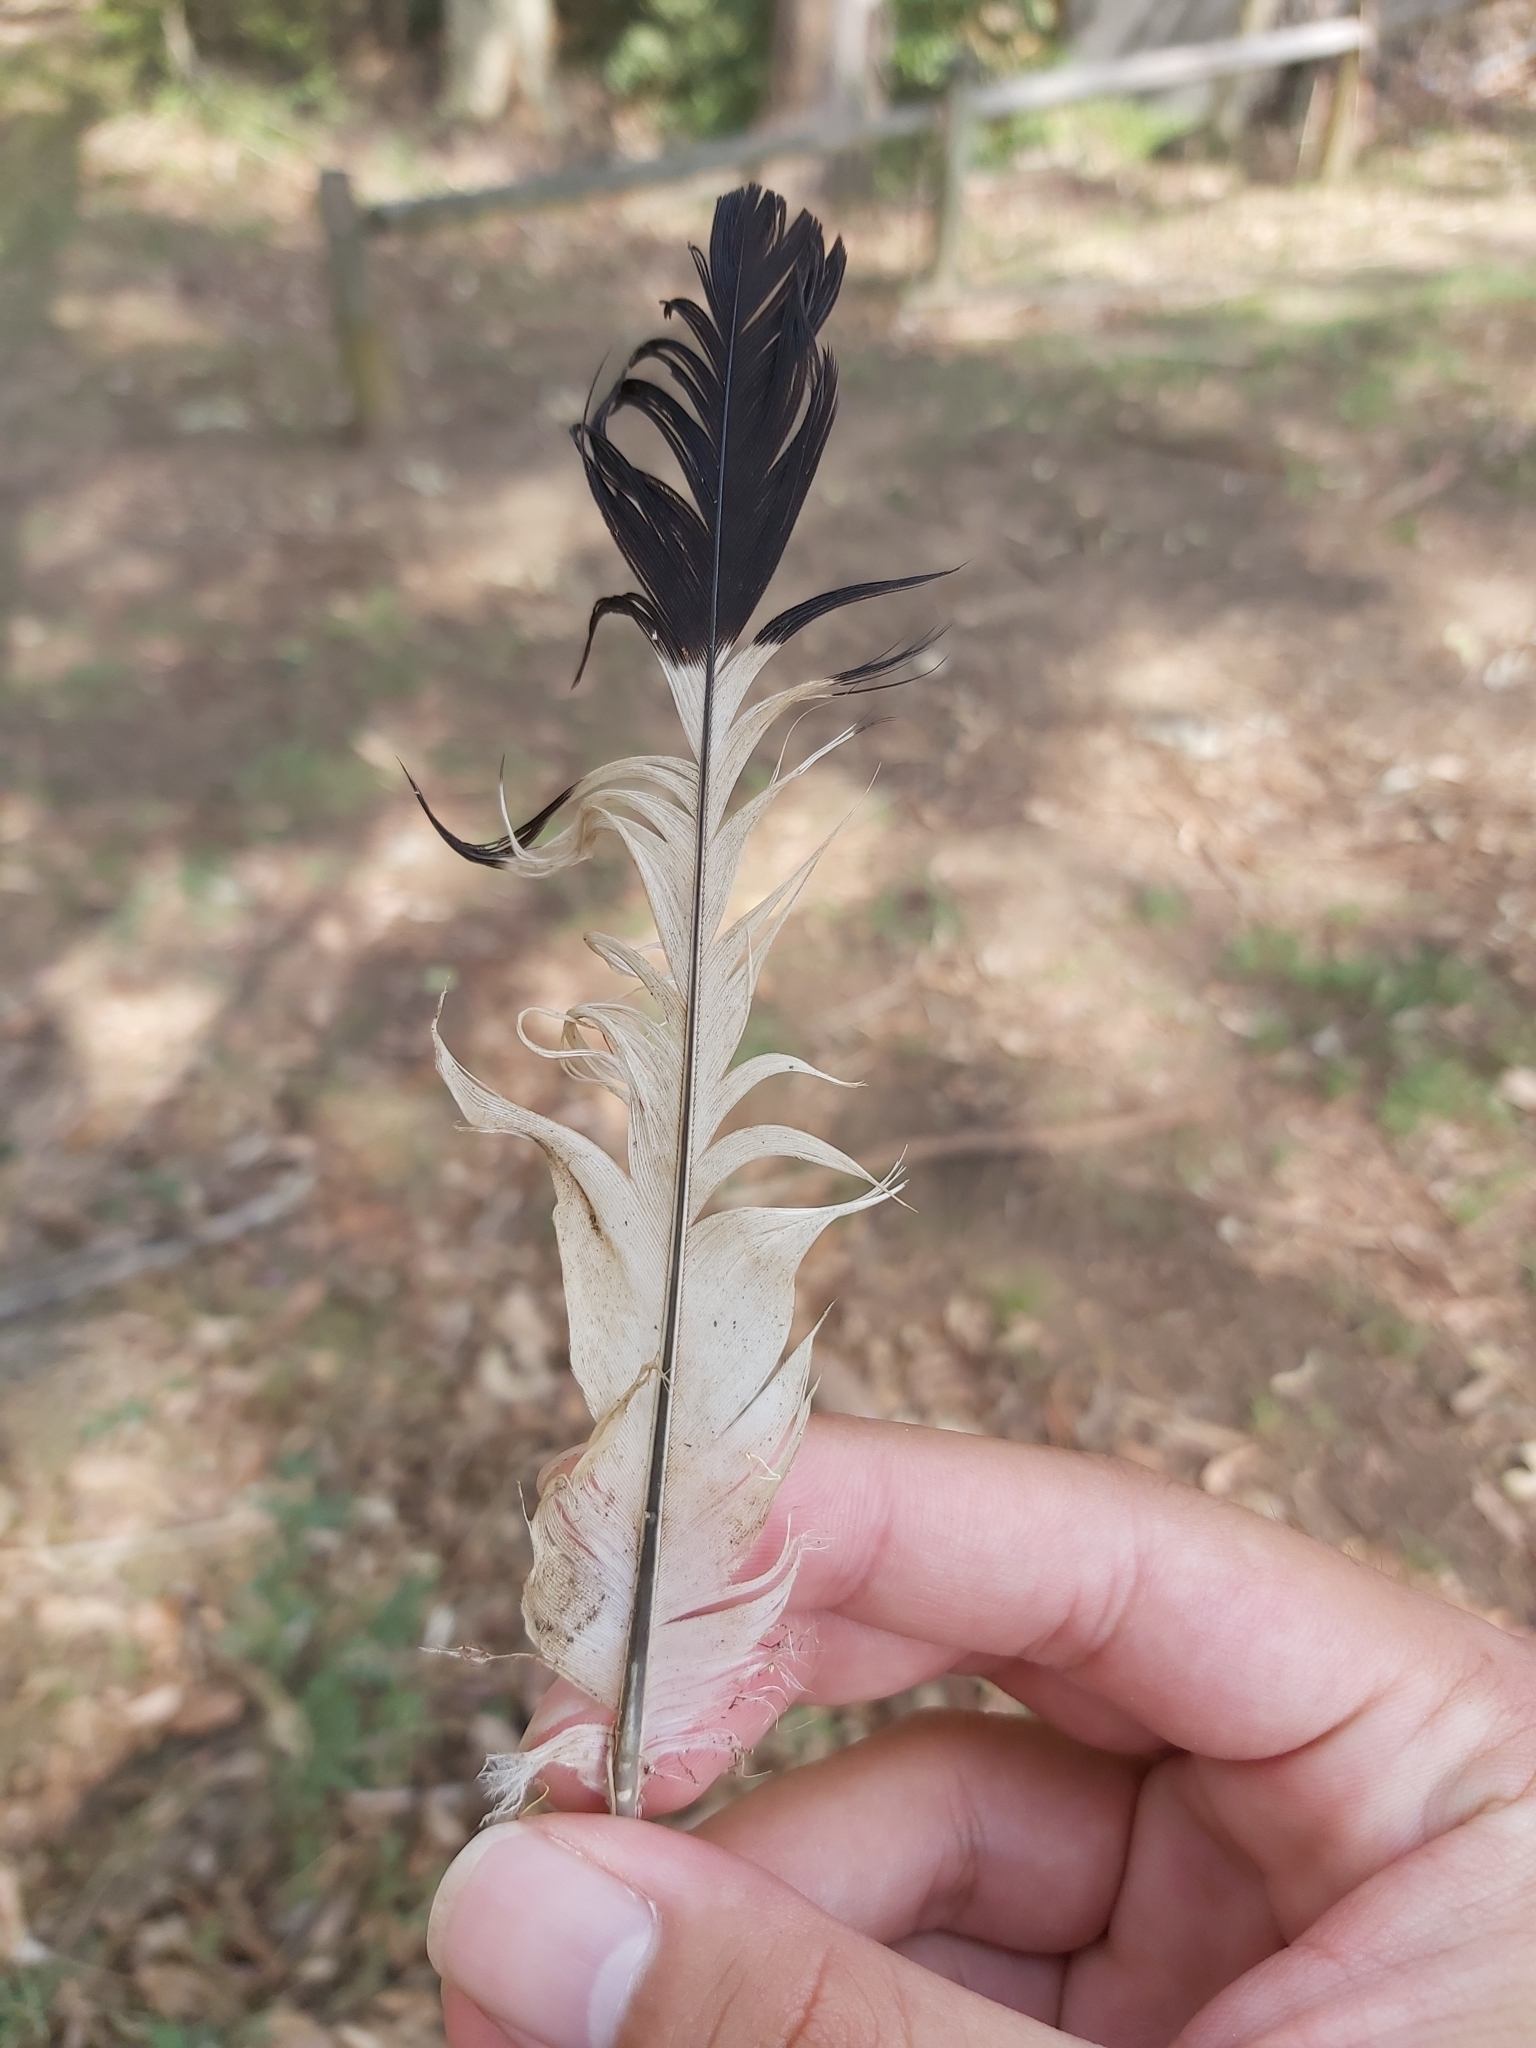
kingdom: Animalia
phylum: Chordata
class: Aves
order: Passeriformes
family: Cracticidae
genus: Gymnorhina
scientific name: Gymnorhina tibicen
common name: Australian magpie
